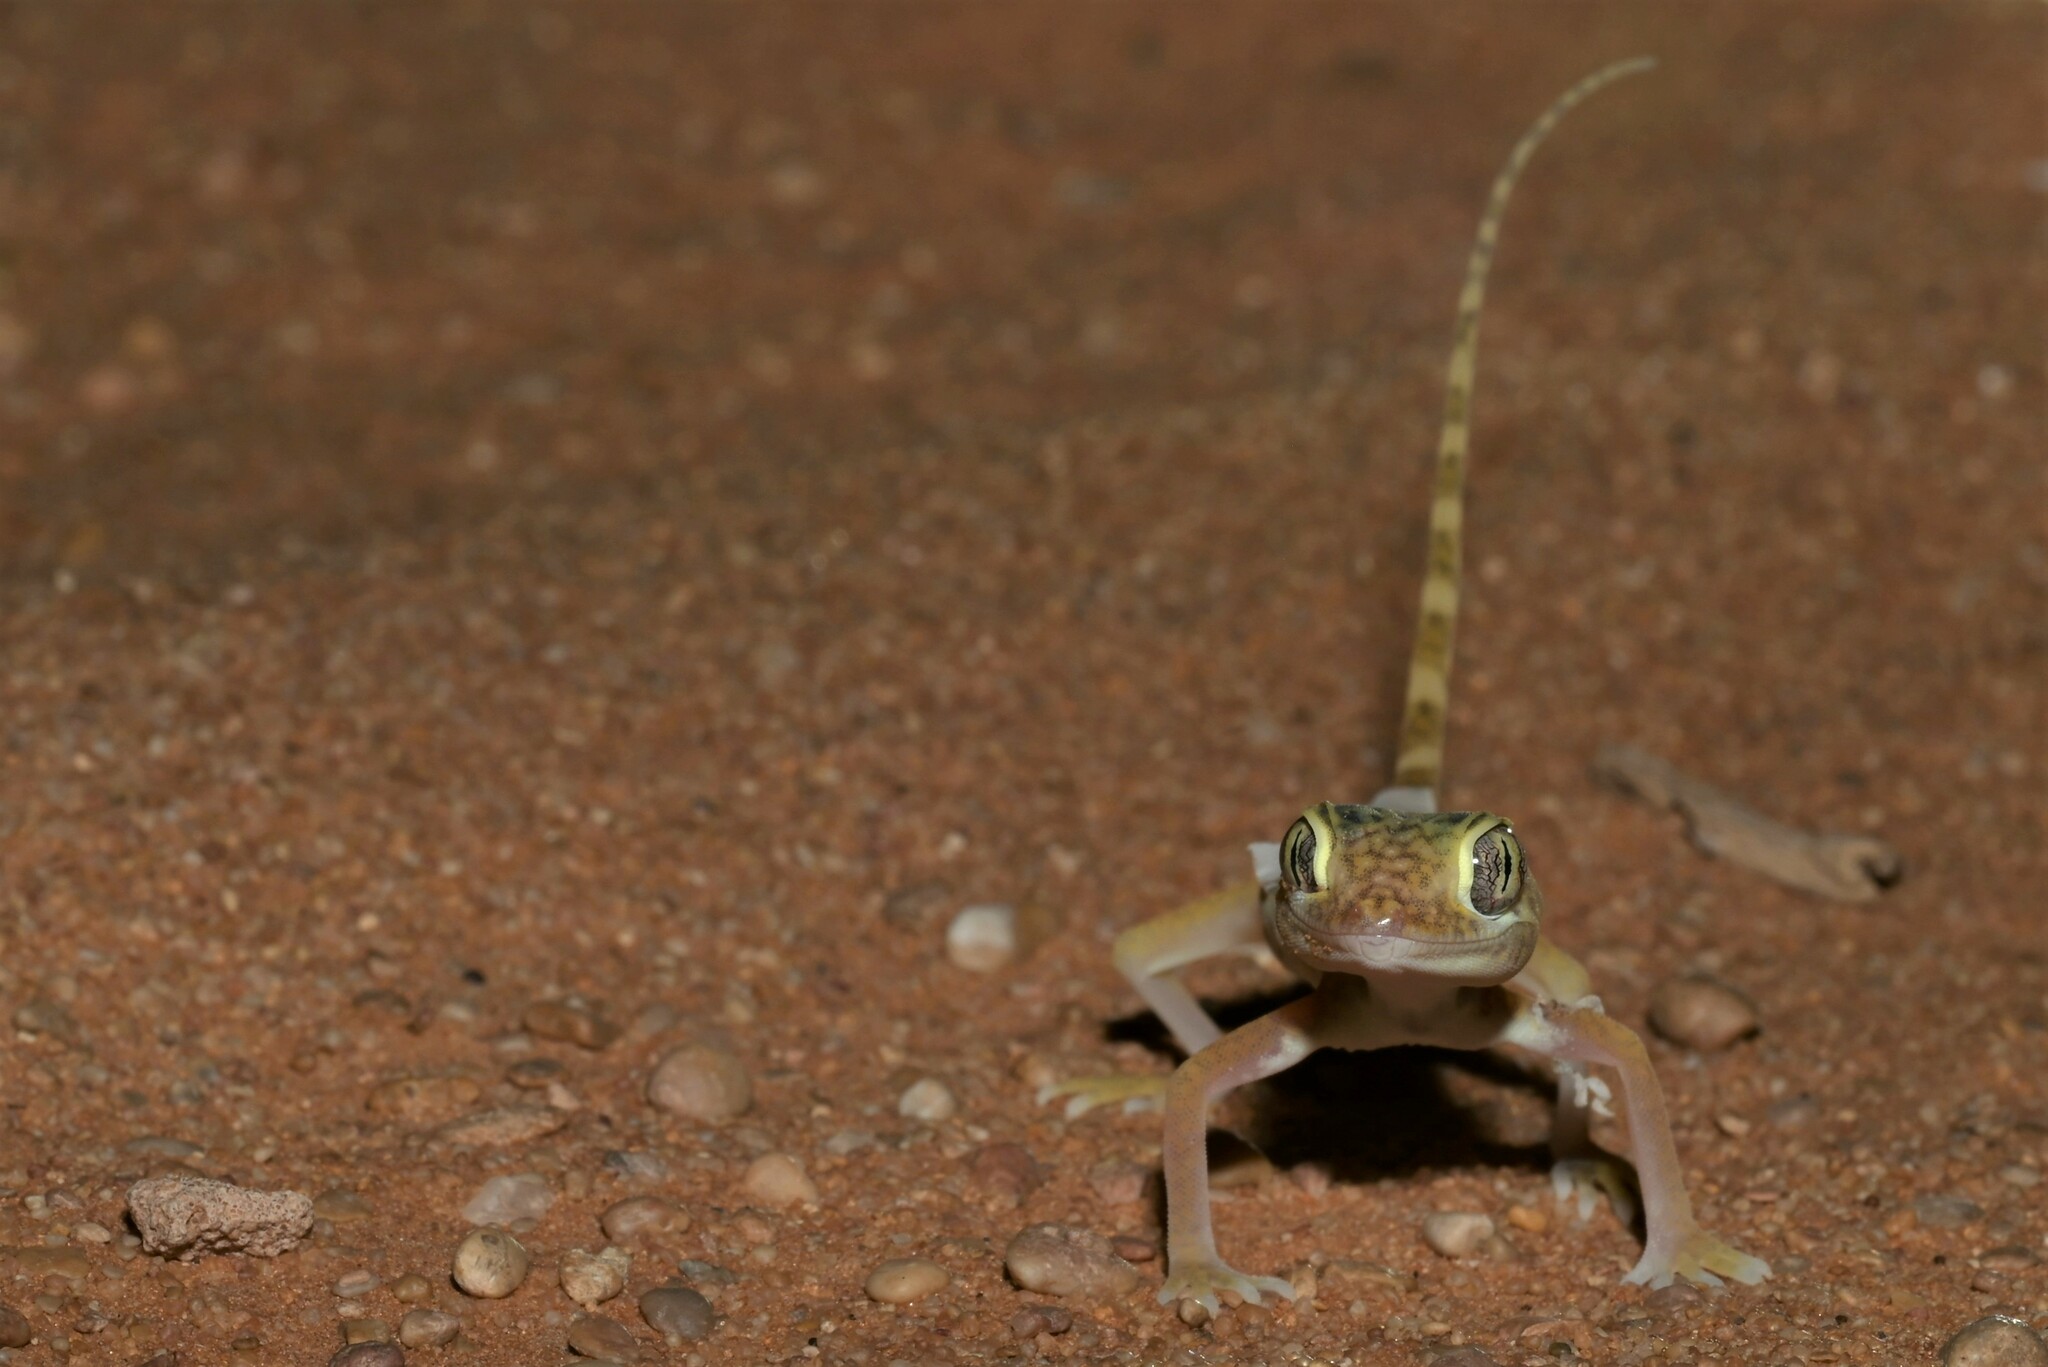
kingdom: Animalia
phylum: Chordata
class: Squamata
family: Gekkonidae
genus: Stenodactylus
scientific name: Stenodactylus doriae
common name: Dune sand gecko
